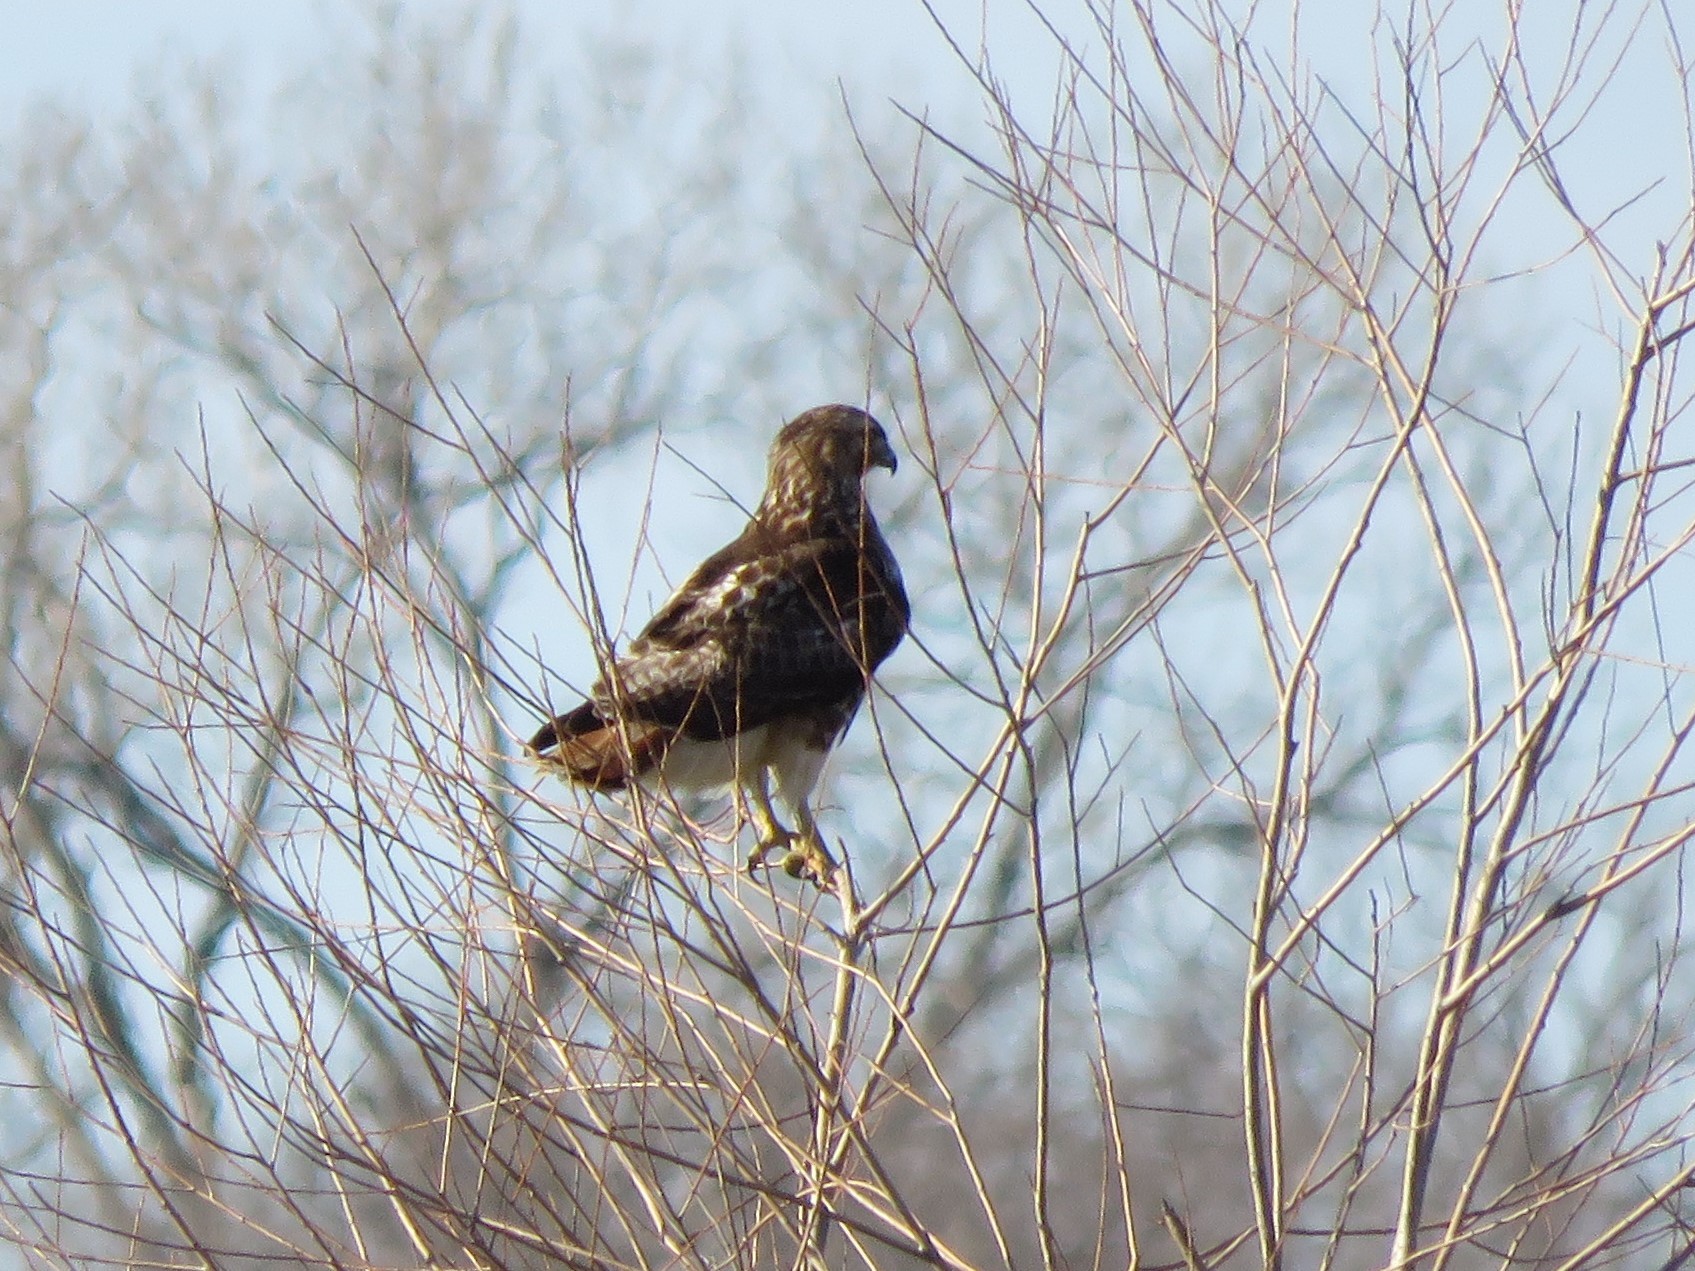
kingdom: Animalia
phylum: Chordata
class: Aves
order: Accipitriformes
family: Accipitridae
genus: Buteo
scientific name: Buteo jamaicensis
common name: Red-tailed hawk
